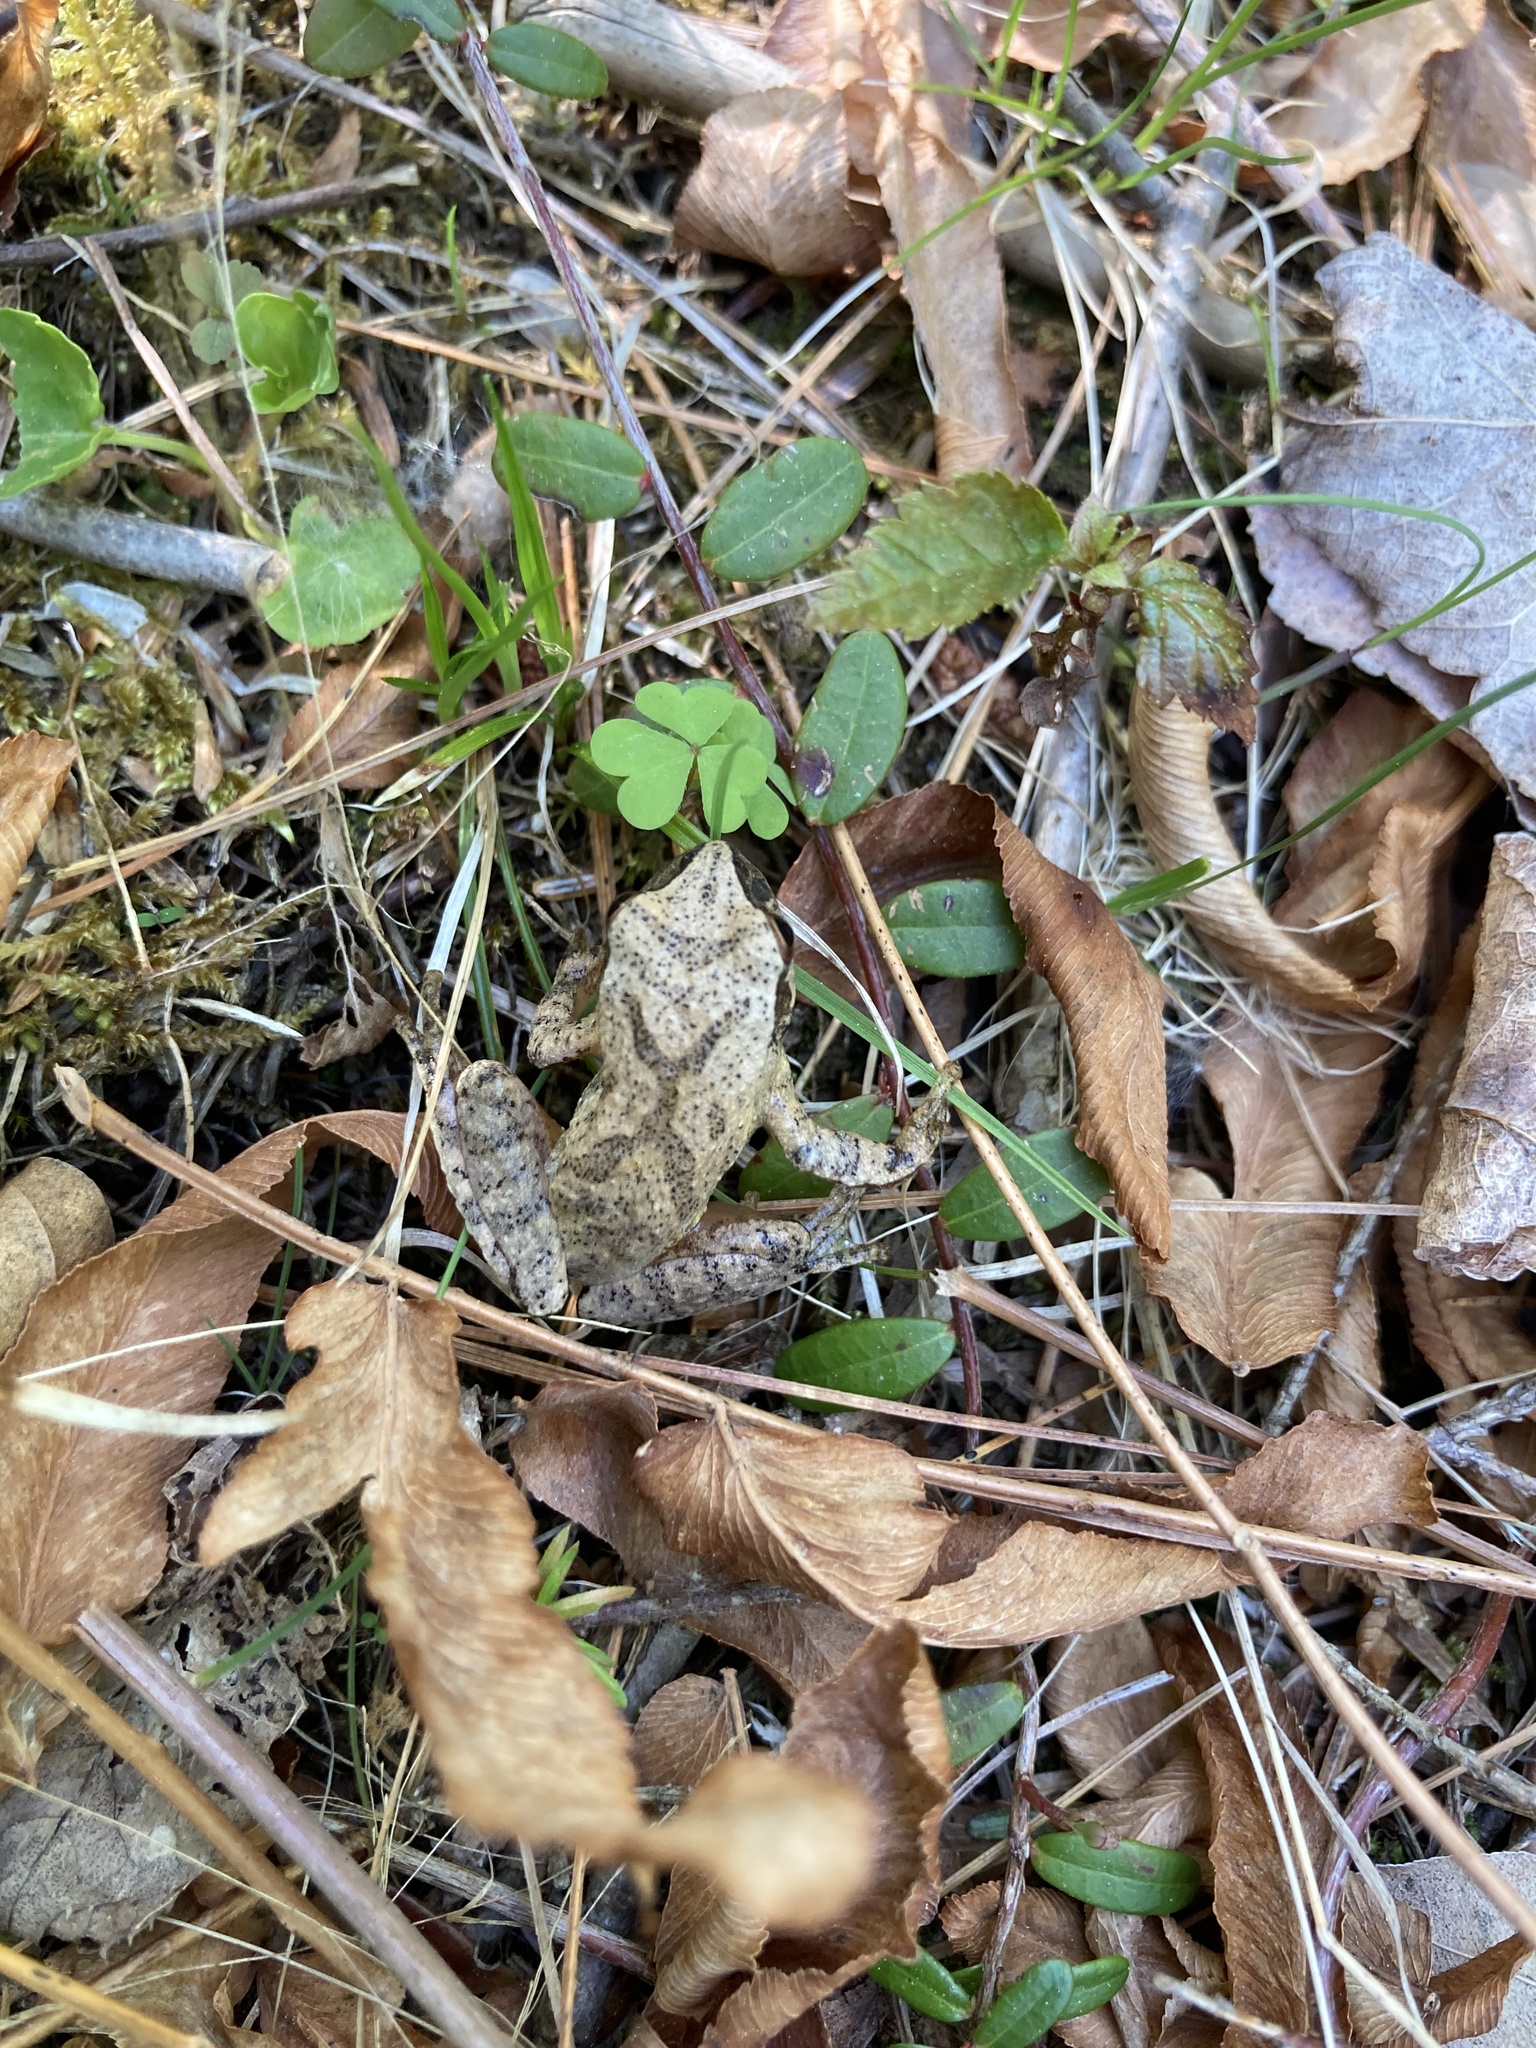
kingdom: Animalia
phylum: Chordata
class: Amphibia
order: Anura
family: Hylidae
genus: Pseudacris
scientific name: Pseudacris crucifer
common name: Spring peeper
